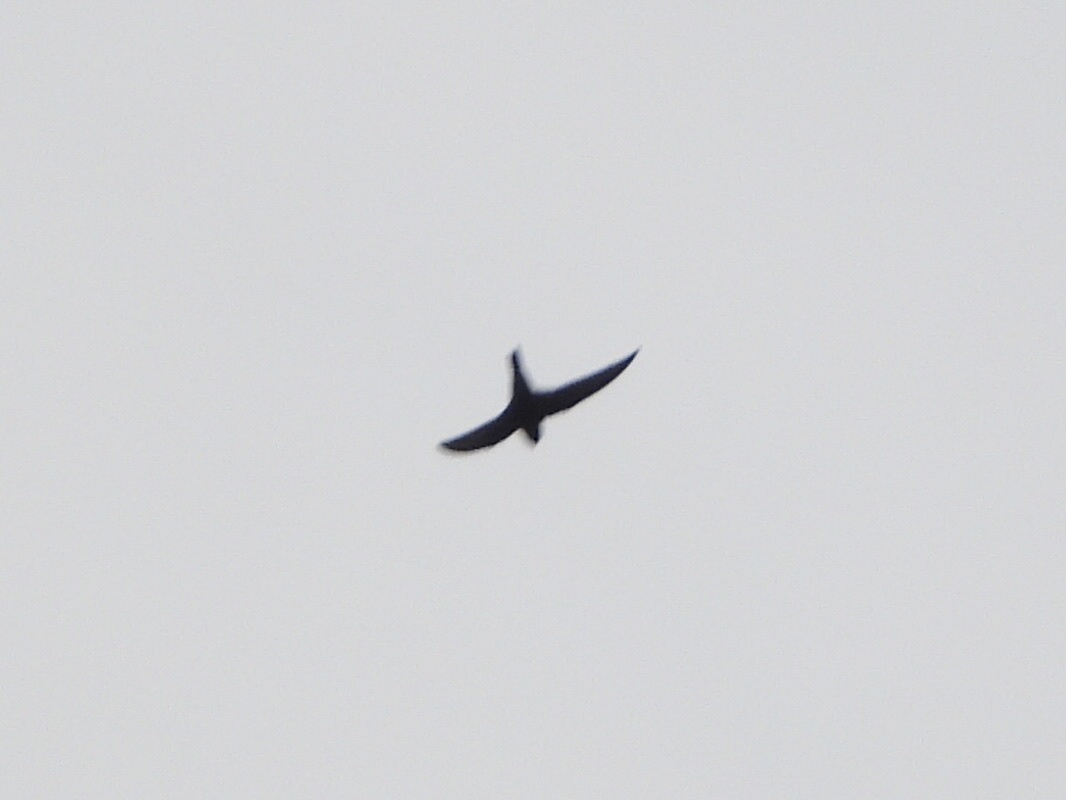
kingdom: Animalia
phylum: Chordata
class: Aves
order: Apodiformes
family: Apodidae
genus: Cypseloides
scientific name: Cypseloides niger
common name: Black swift
